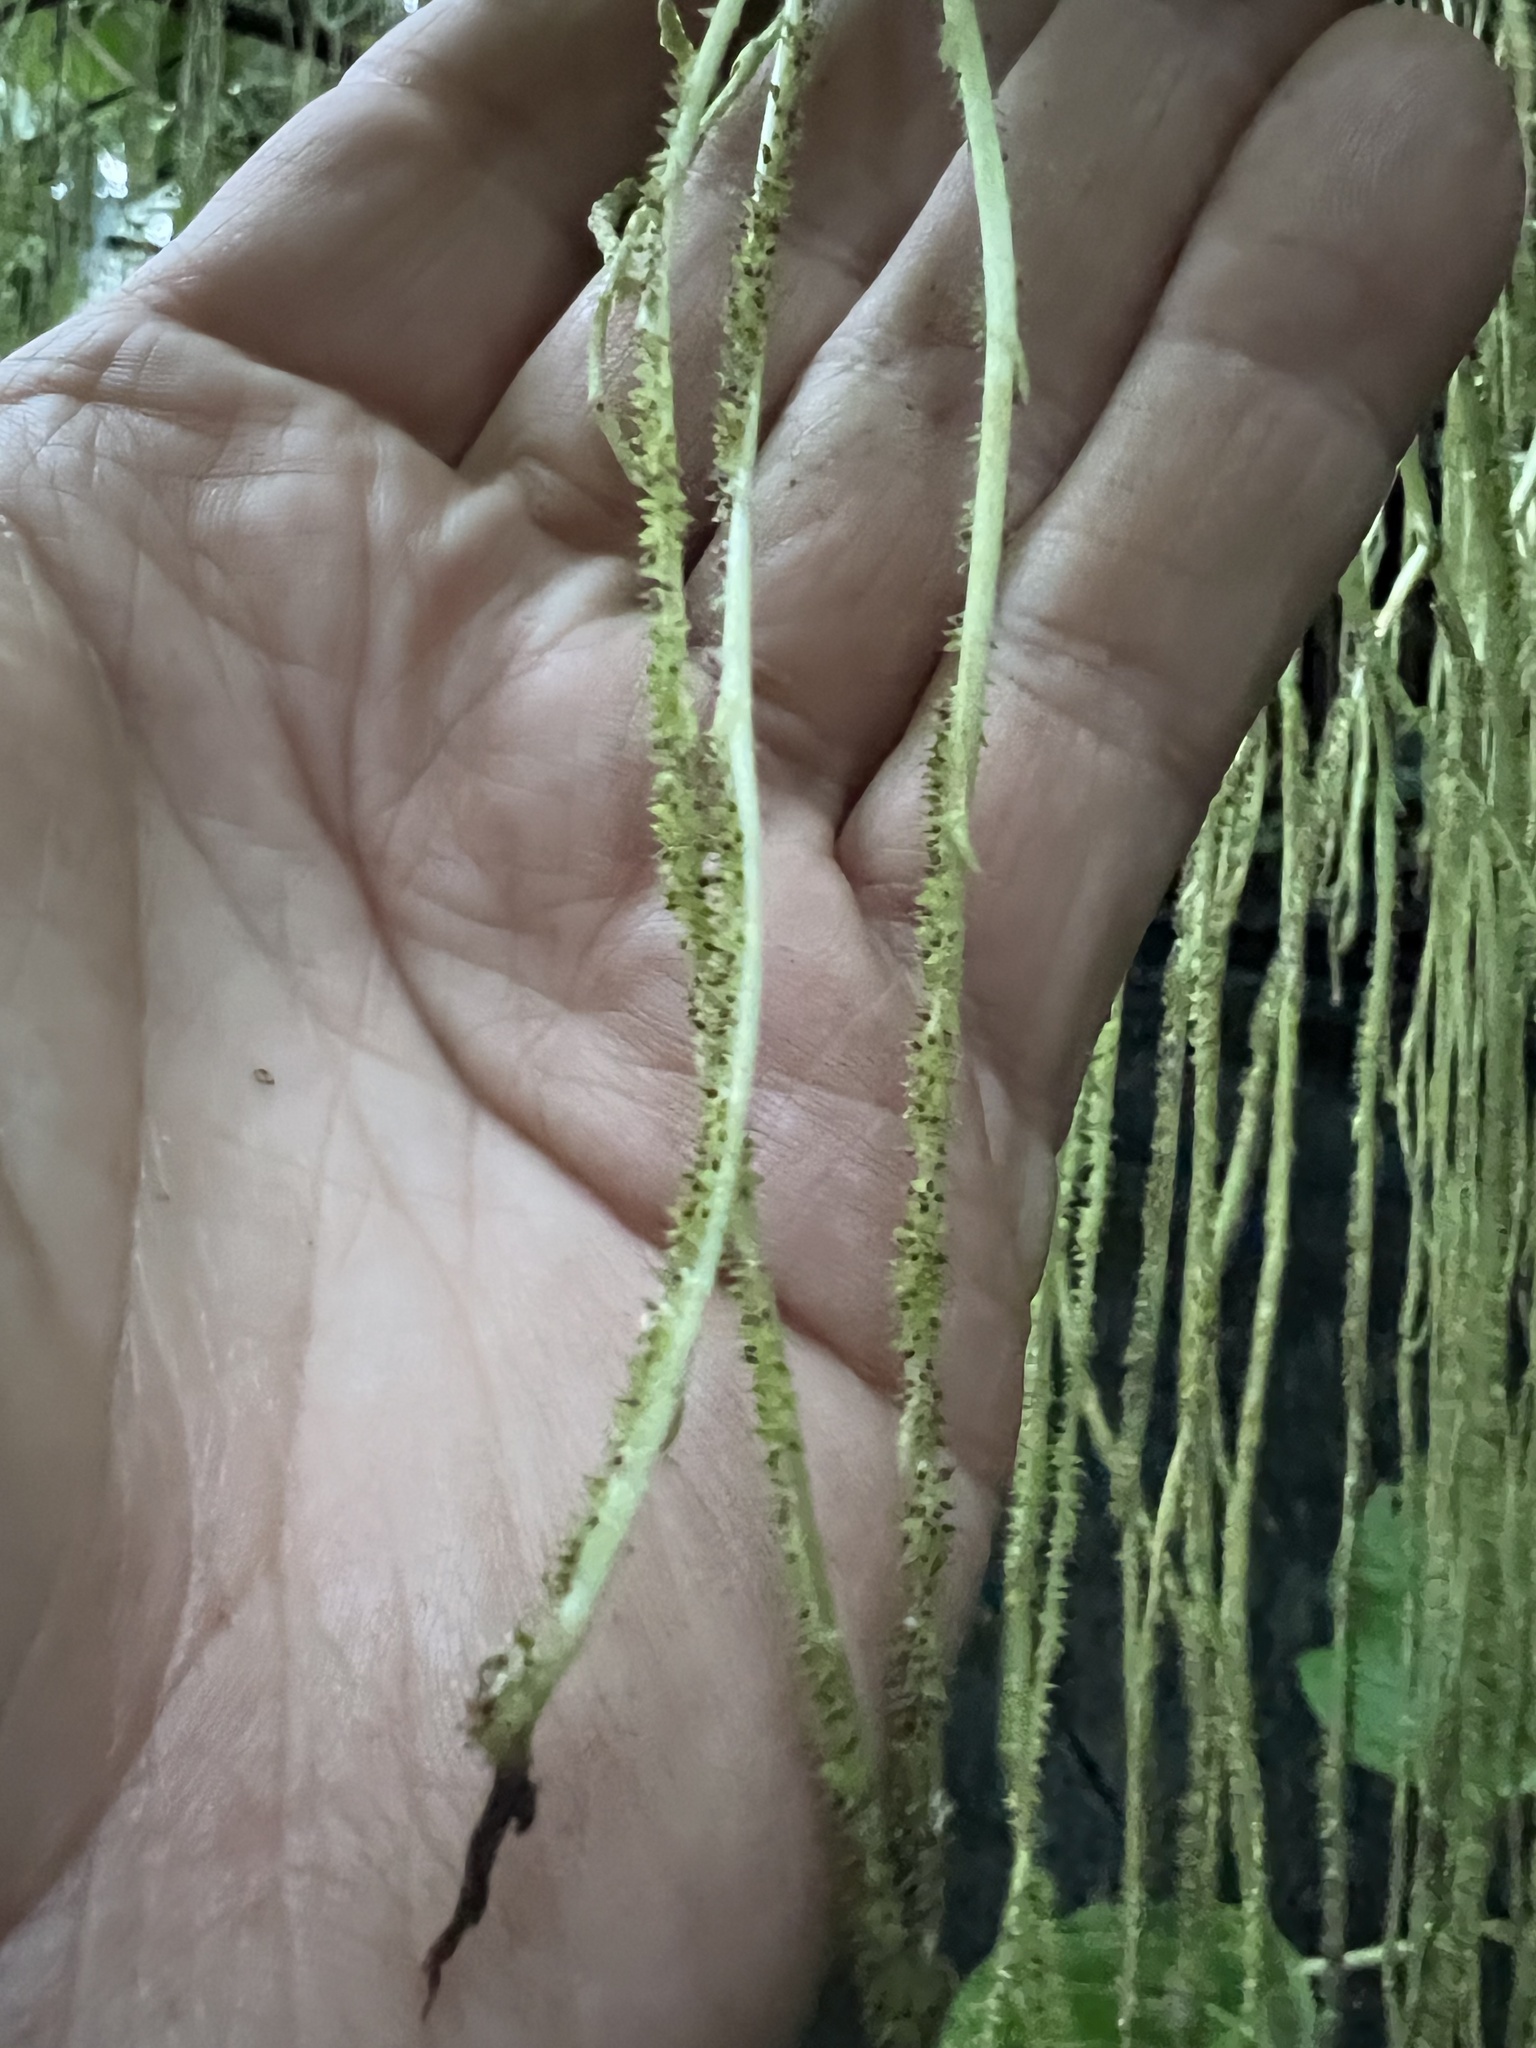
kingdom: Plantae
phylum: Tracheophyta
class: Magnoliopsida
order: Rosales
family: Urticaceae
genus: Myriocarpa
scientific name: Myriocarpa longipes
